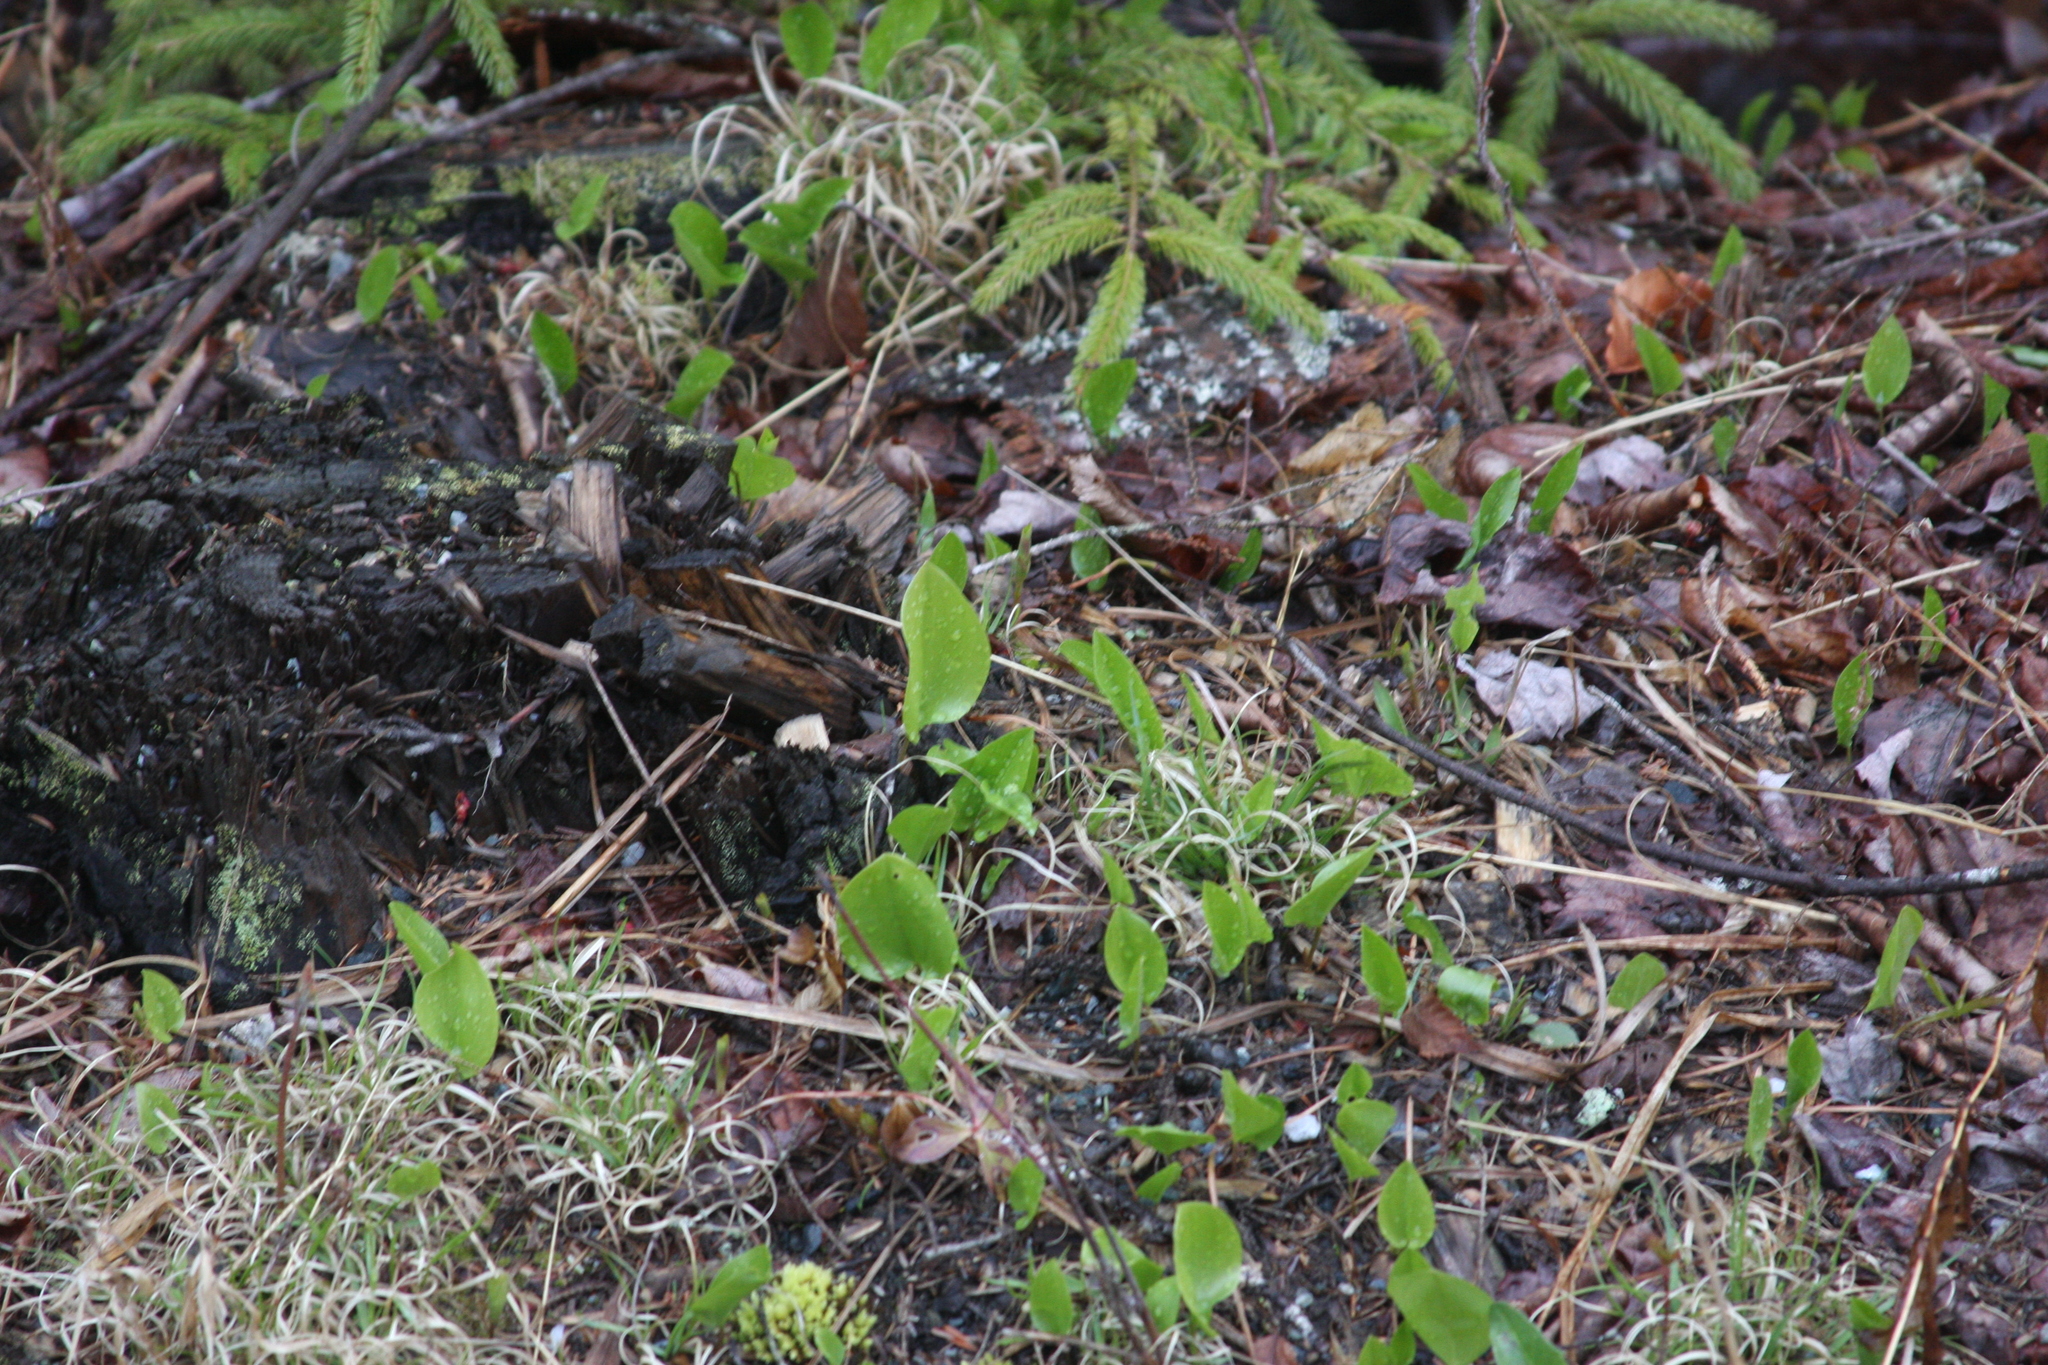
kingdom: Plantae
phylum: Tracheophyta
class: Liliopsida
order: Asparagales
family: Asparagaceae
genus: Maianthemum
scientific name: Maianthemum canadense
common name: False lily-of-the-valley
